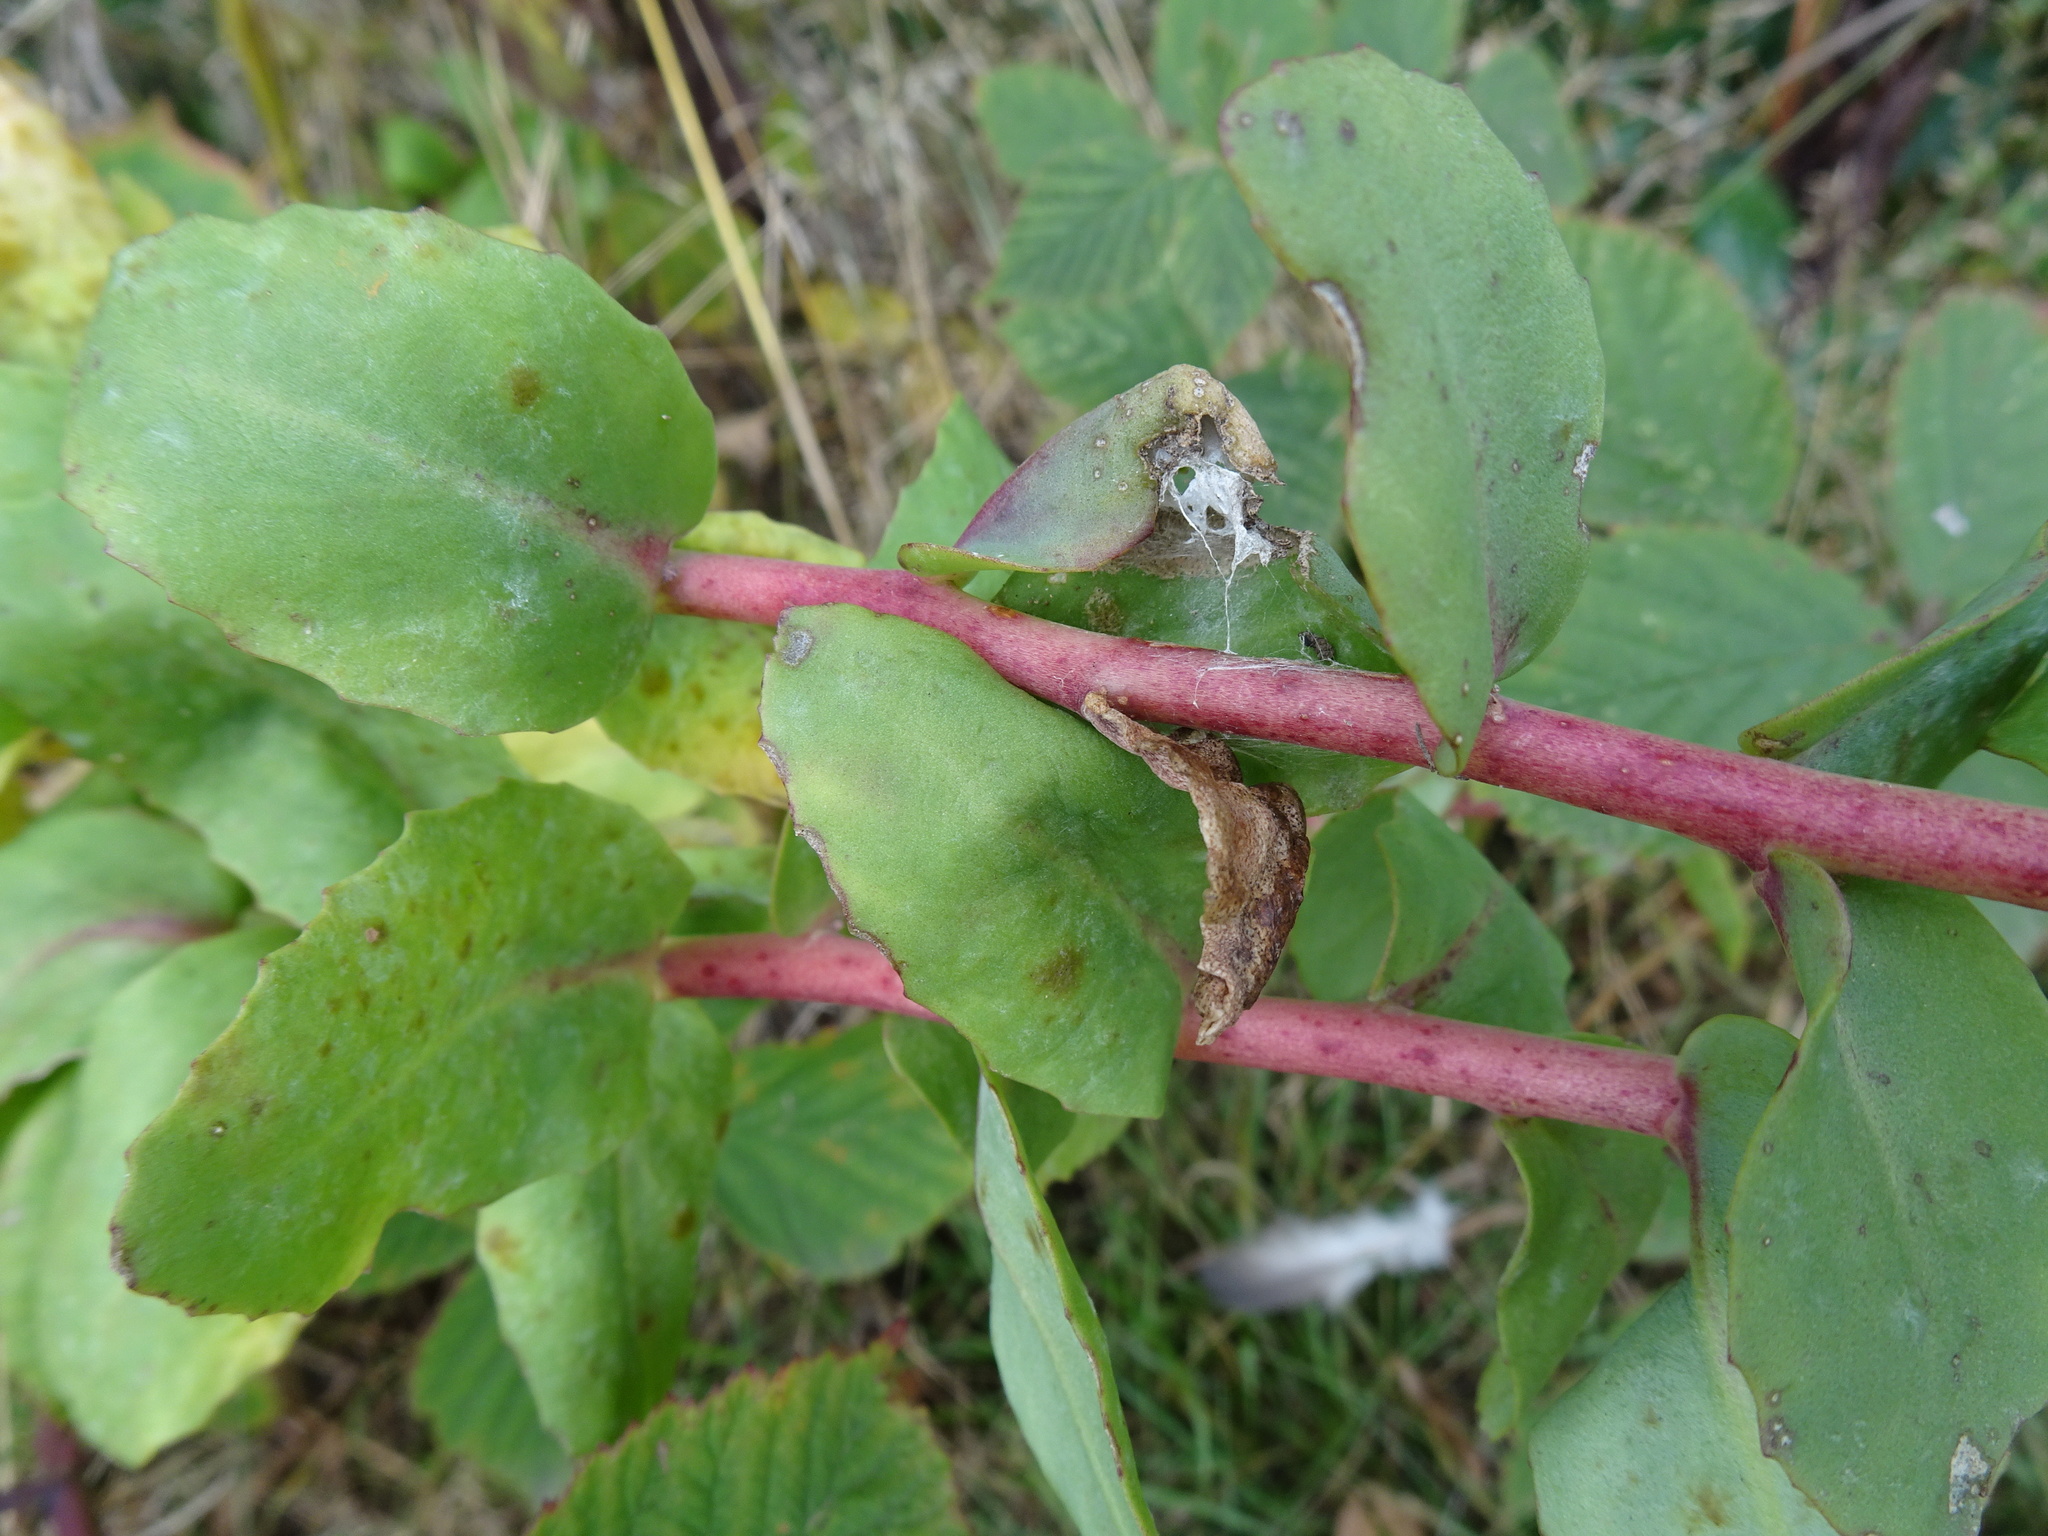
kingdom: Plantae
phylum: Tracheophyta
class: Magnoliopsida
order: Saxifragales
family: Crassulaceae
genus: Hylotelephium
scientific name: Hylotelephium telephium
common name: Live-forever
